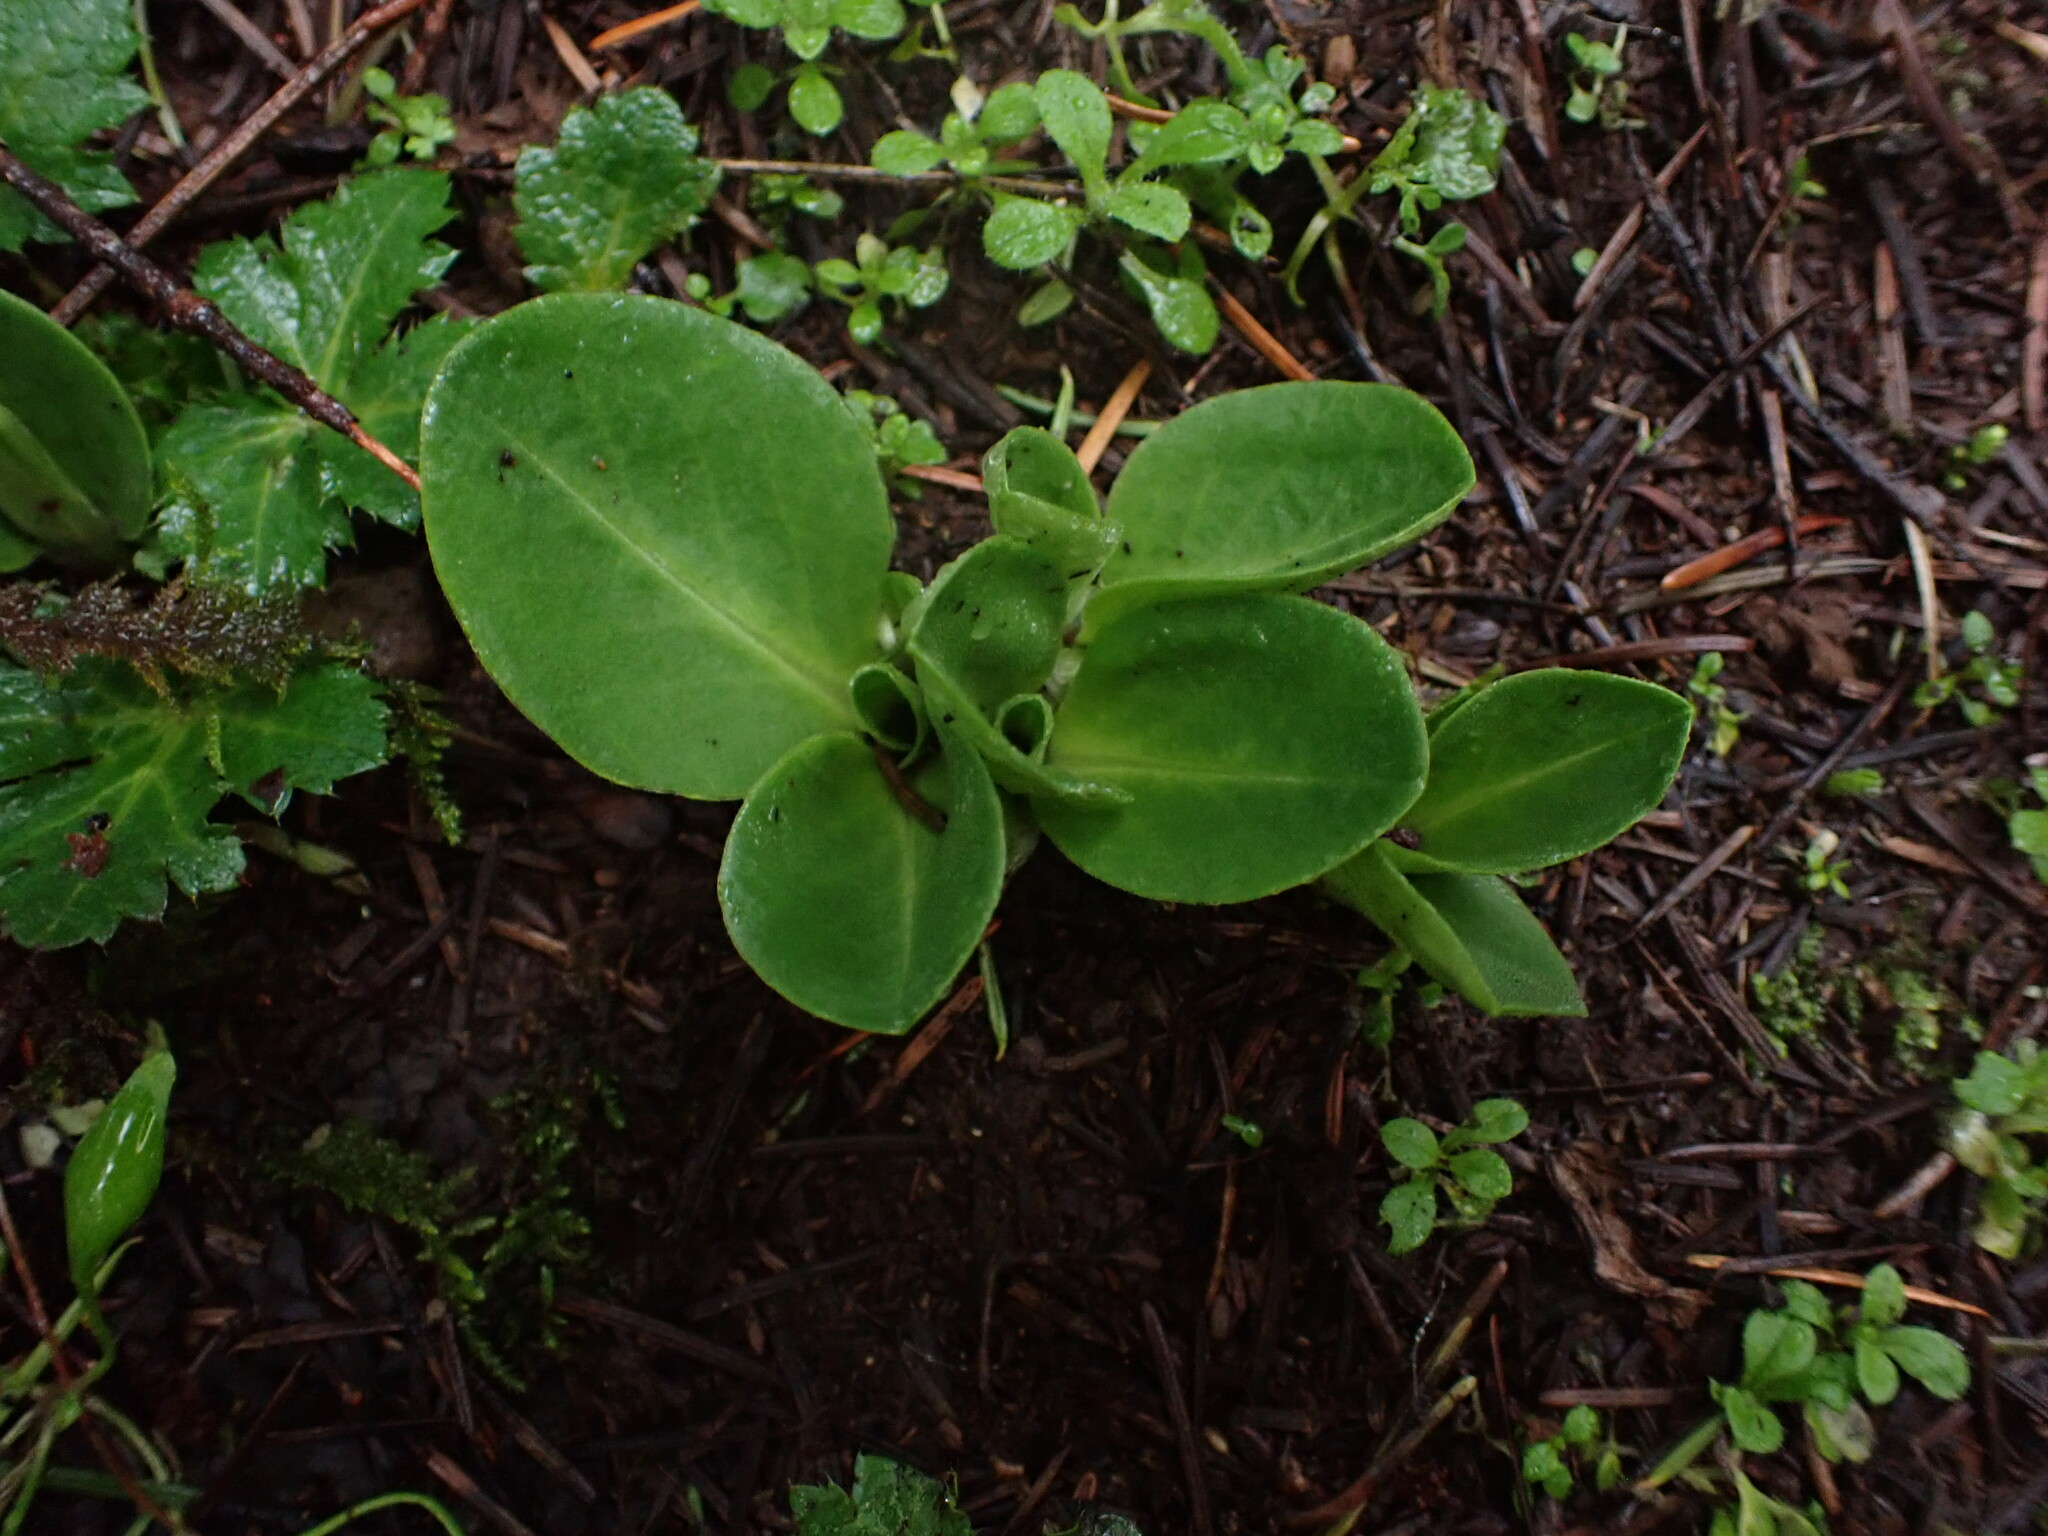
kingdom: Plantae
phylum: Tracheophyta
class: Magnoliopsida
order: Ericales
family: Primulaceae
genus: Dodecatheon
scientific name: Dodecatheon hendersonii
